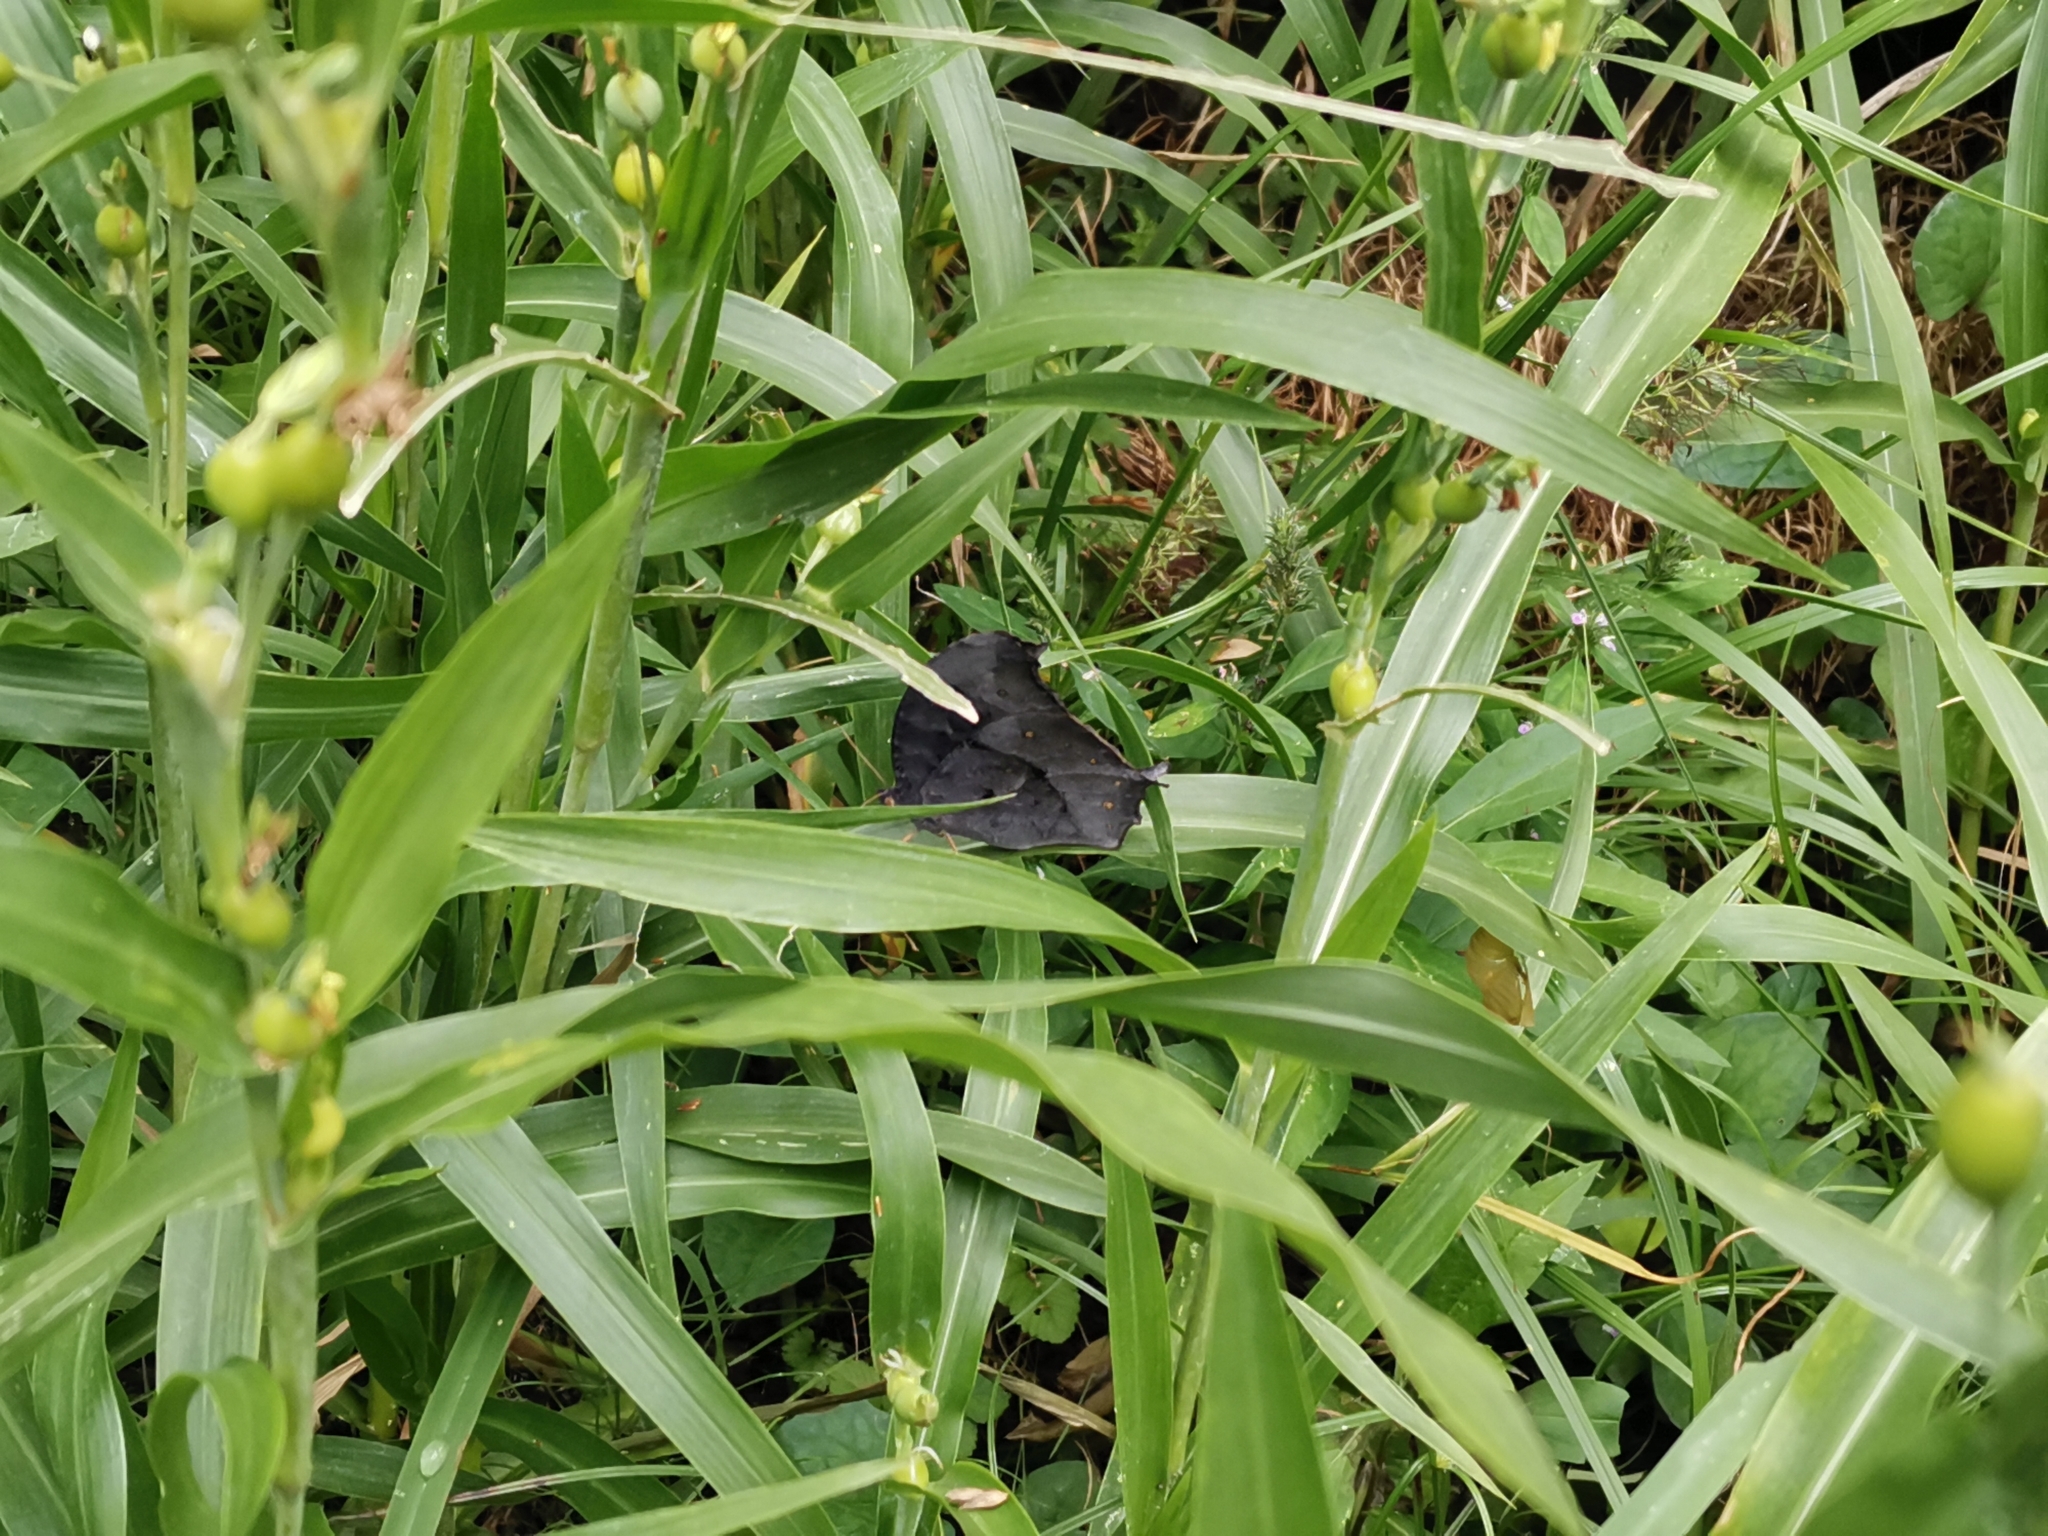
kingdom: Animalia
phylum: Arthropoda
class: Insecta
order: Lepidoptera
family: Nymphalidae
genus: Melanitis
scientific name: Melanitis phedima
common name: Dark evening brown
